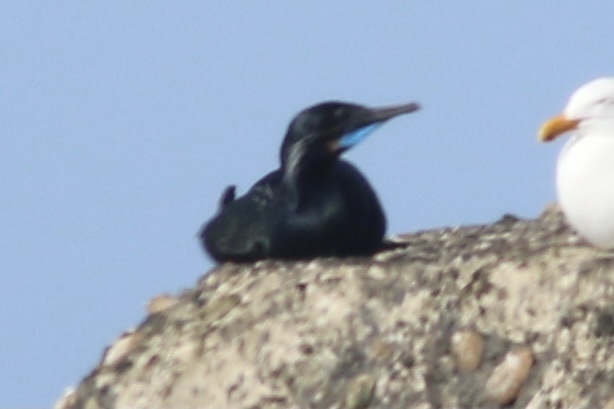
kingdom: Animalia
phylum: Chordata
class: Aves
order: Suliformes
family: Phalacrocoracidae
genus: Urile
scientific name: Urile penicillatus
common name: Brandt's cormorant
